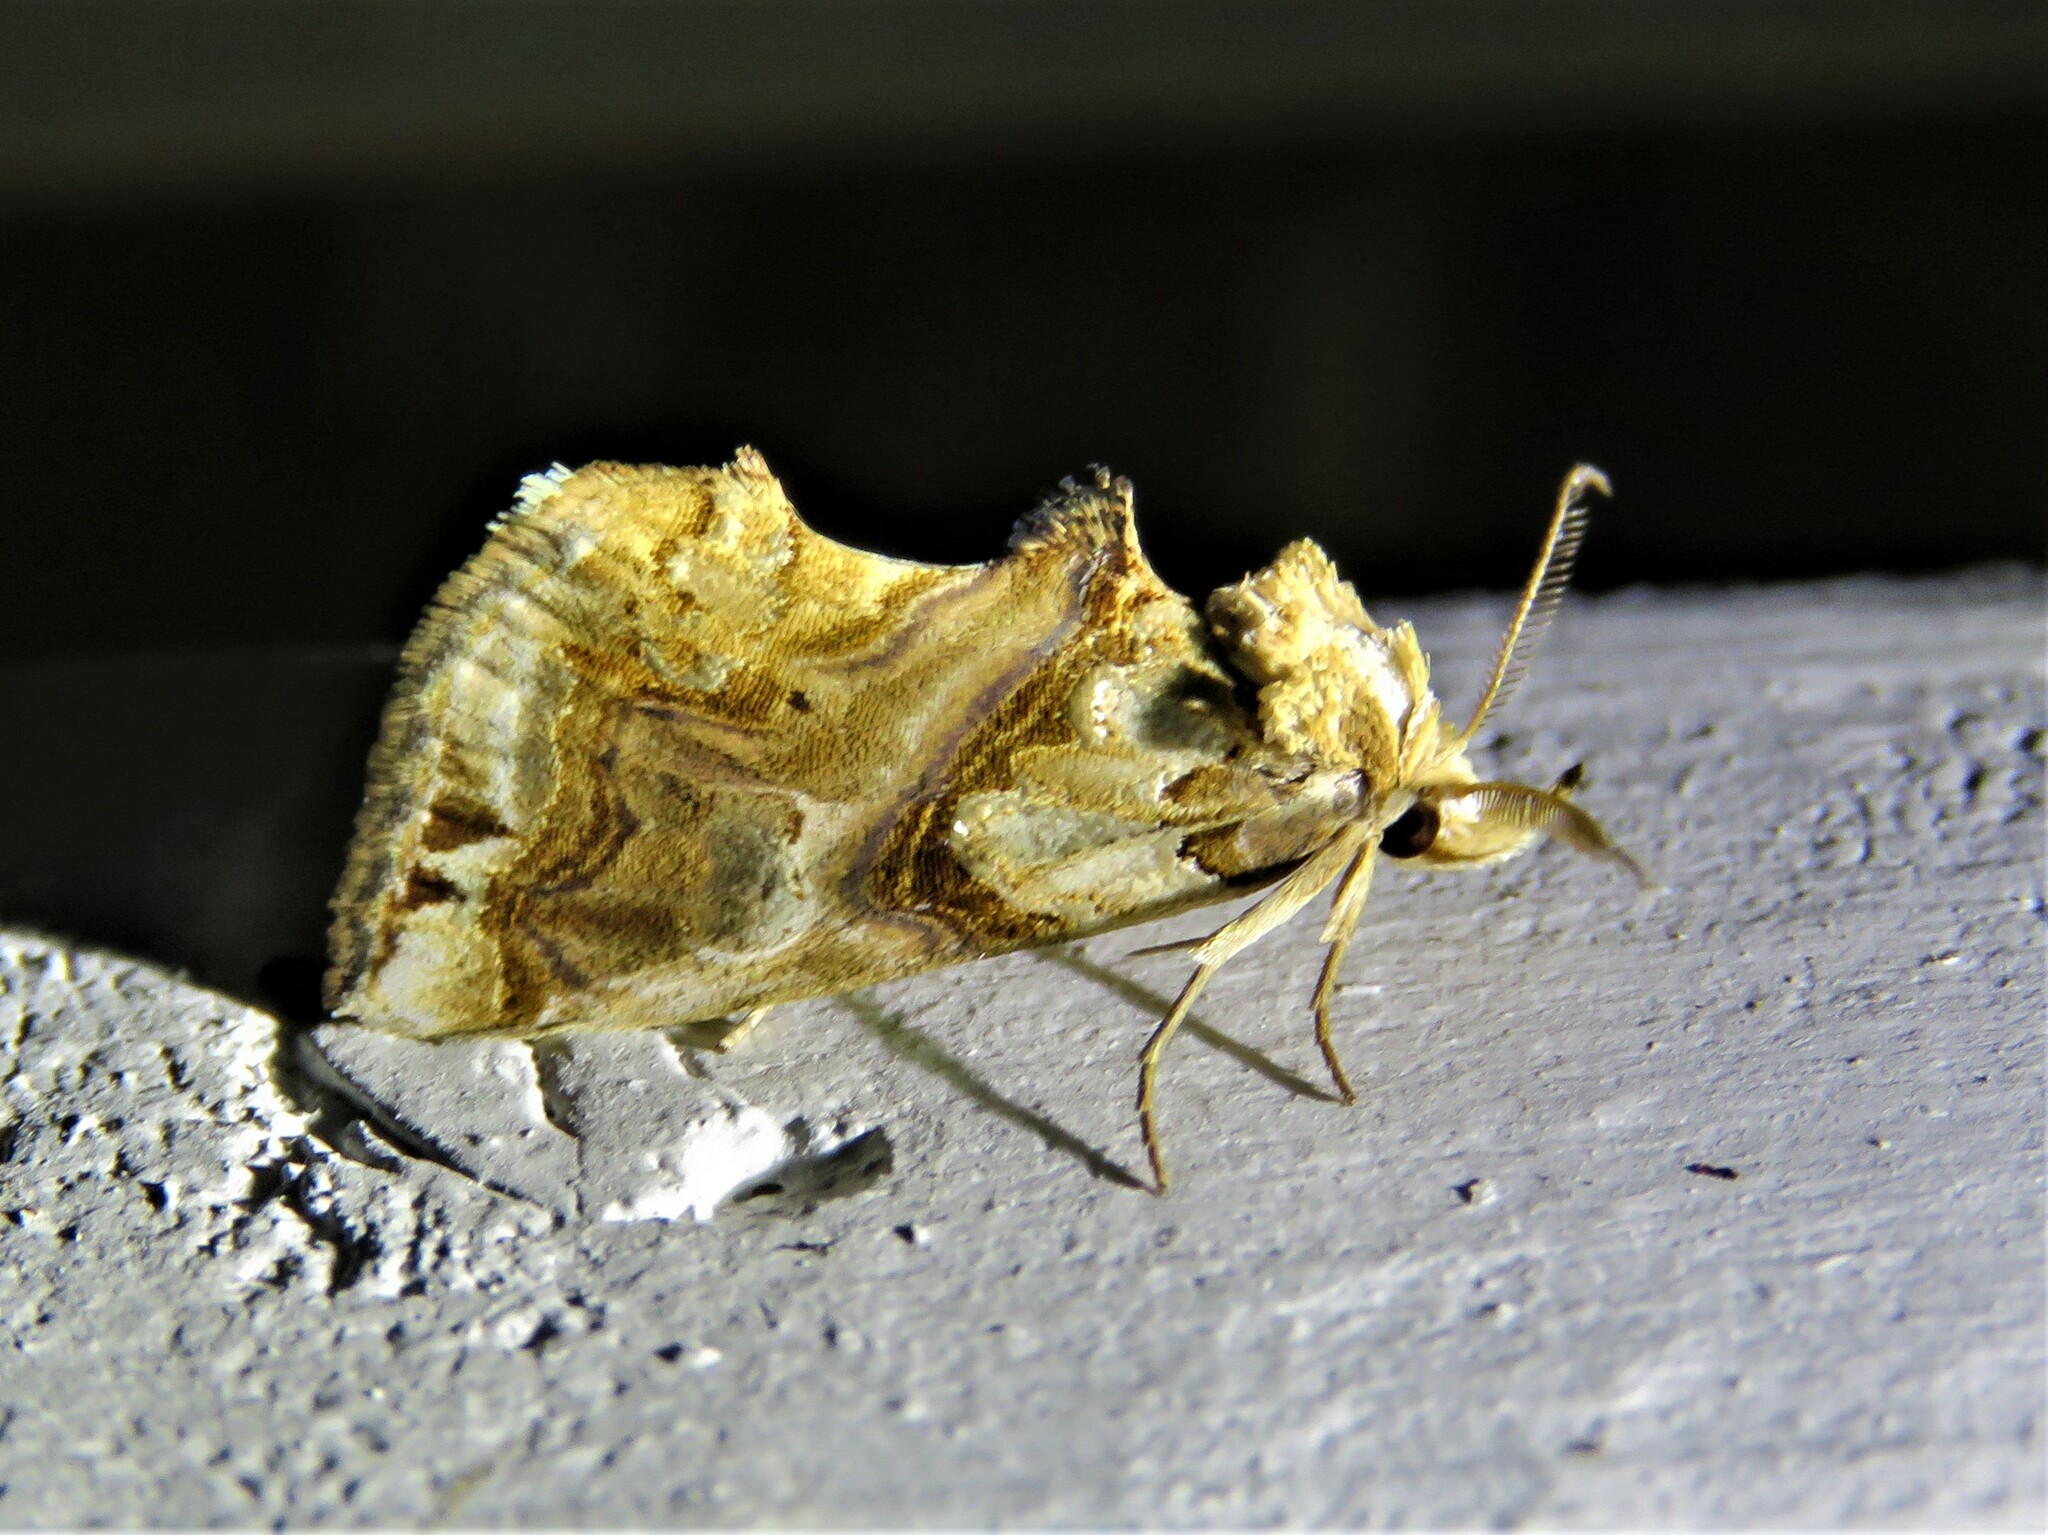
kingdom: Animalia
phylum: Arthropoda
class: Insecta
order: Lepidoptera
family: Erebidae
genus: Plusiodonta
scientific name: Plusiodonta compressipalpis
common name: Moonseed moth
